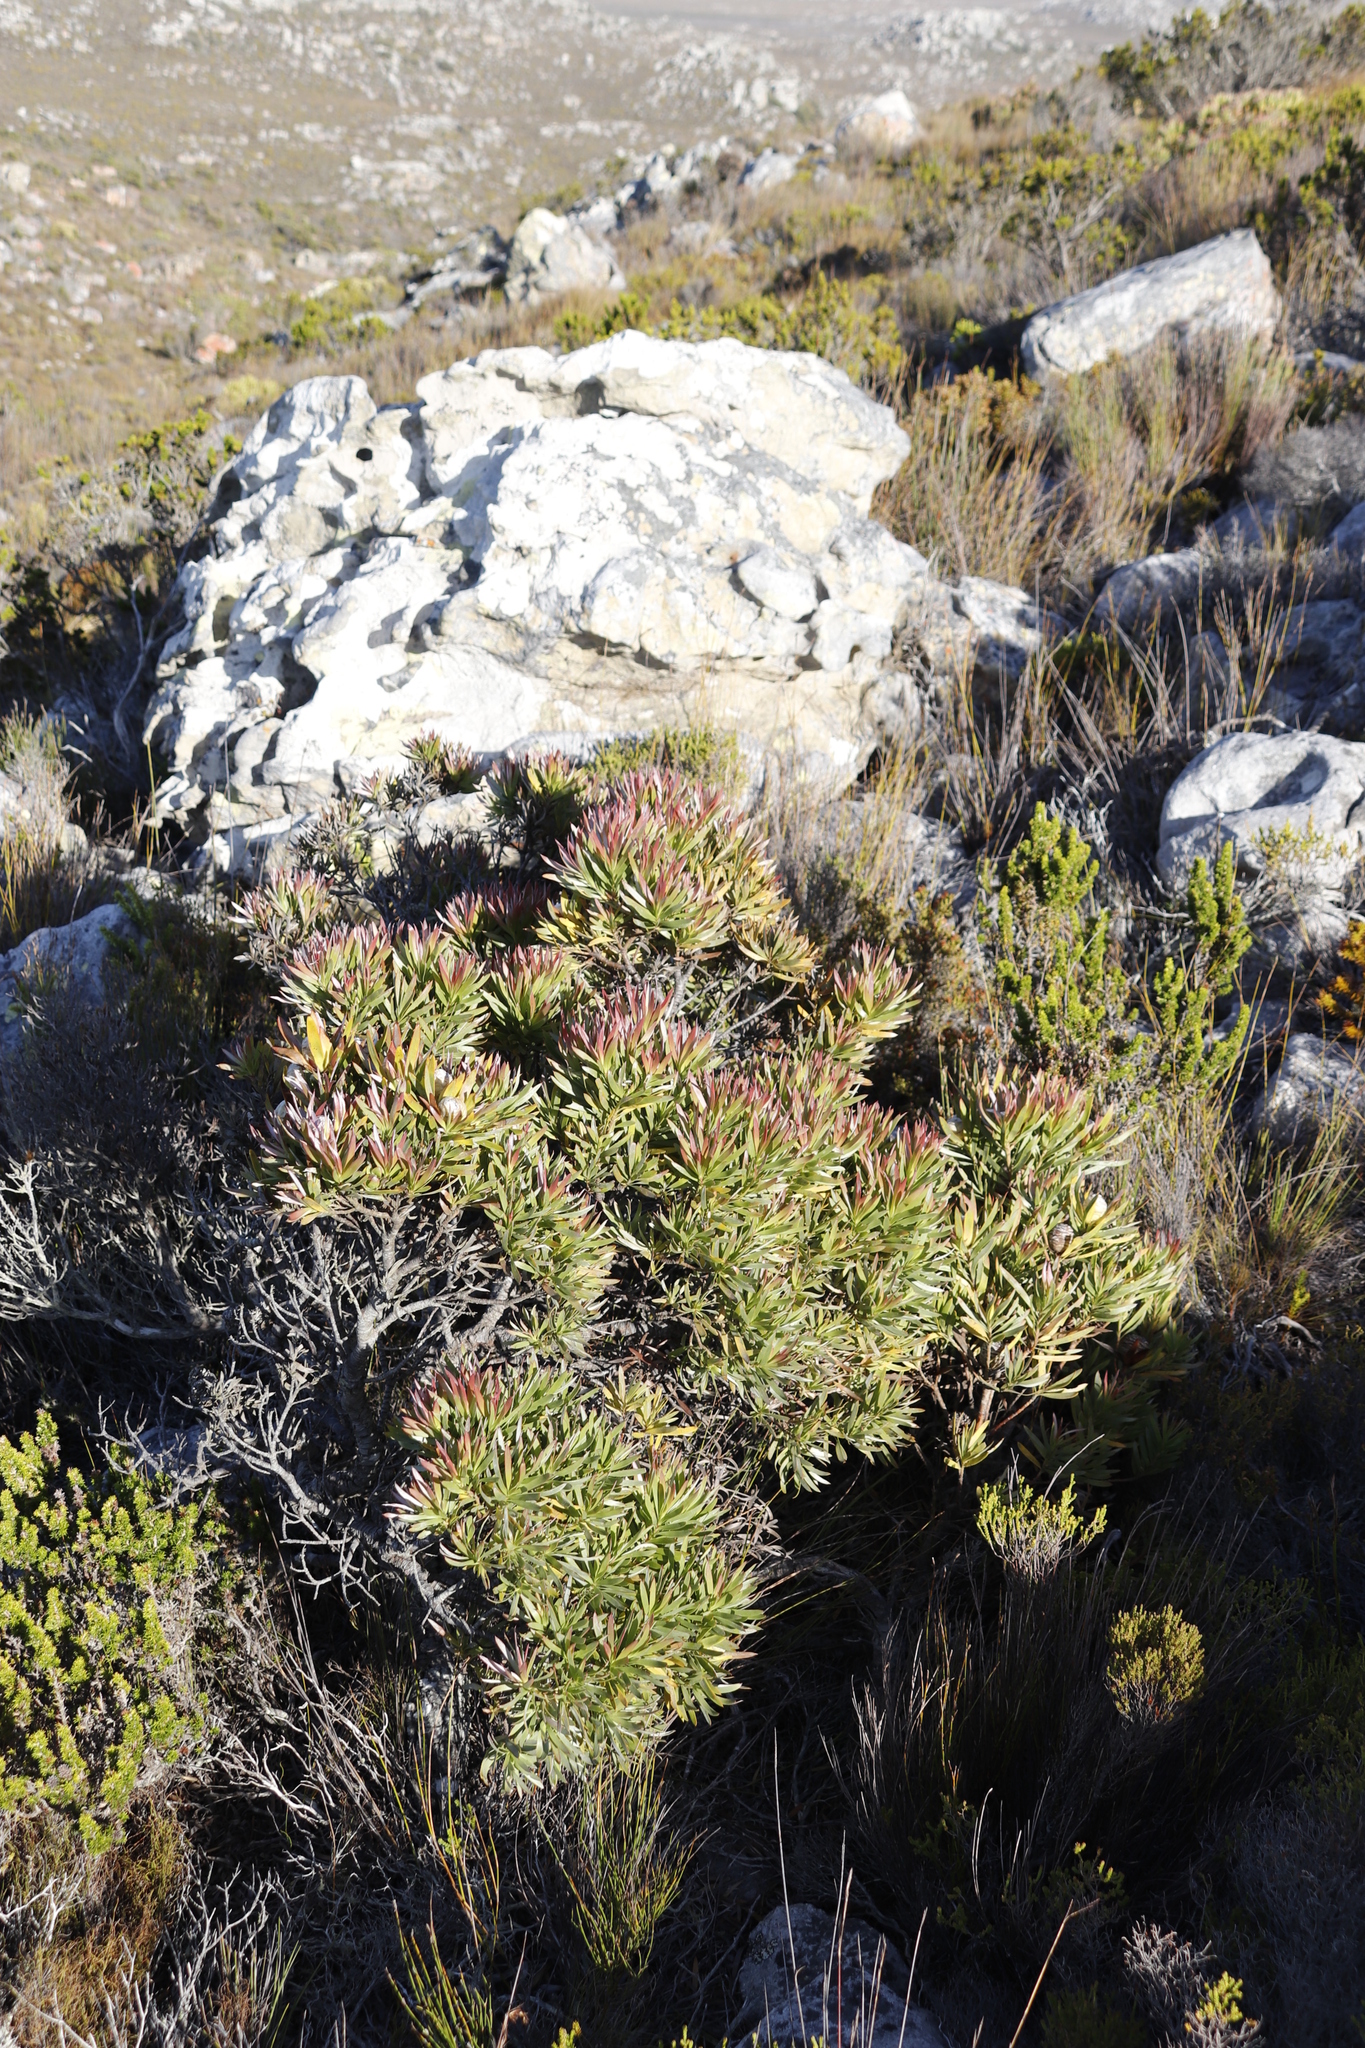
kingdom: Plantae
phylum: Tracheophyta
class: Magnoliopsida
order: Proteales
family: Proteaceae
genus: Leucadendron
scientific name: Leucadendron xanthoconus
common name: Sickle-leaf conebush
